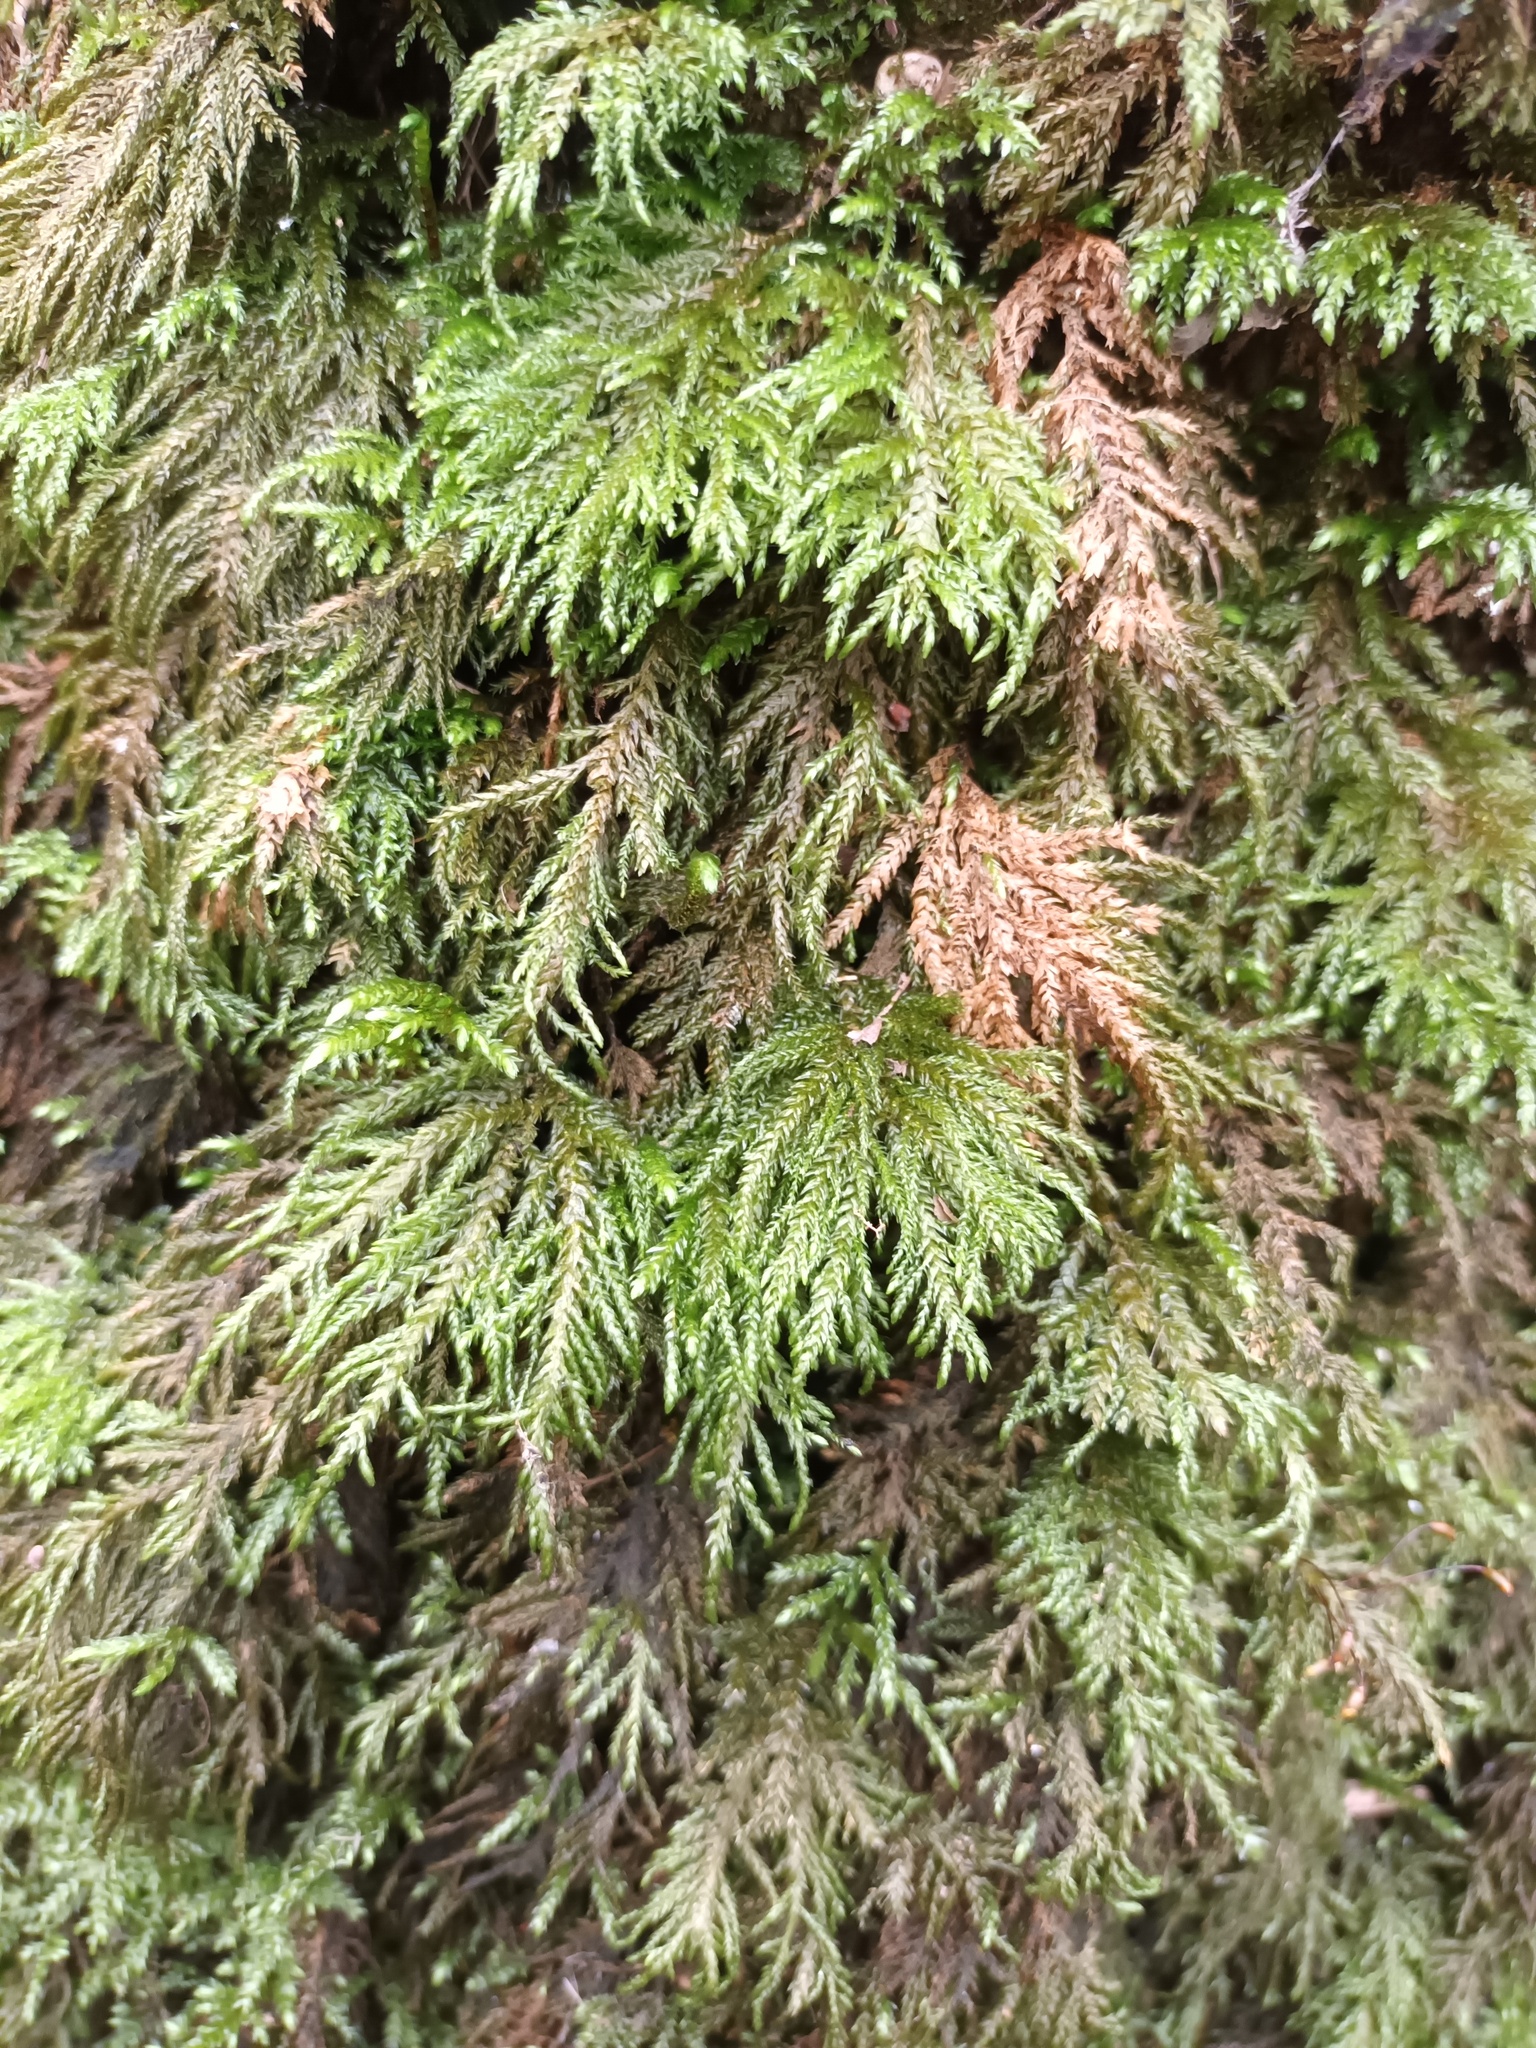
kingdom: Plantae
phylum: Bryophyta
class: Bryopsida
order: Hypnales
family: Neckeraceae
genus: Thamnobryum
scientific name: Thamnobryum alopecurum
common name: Fox-tail feather-moss
